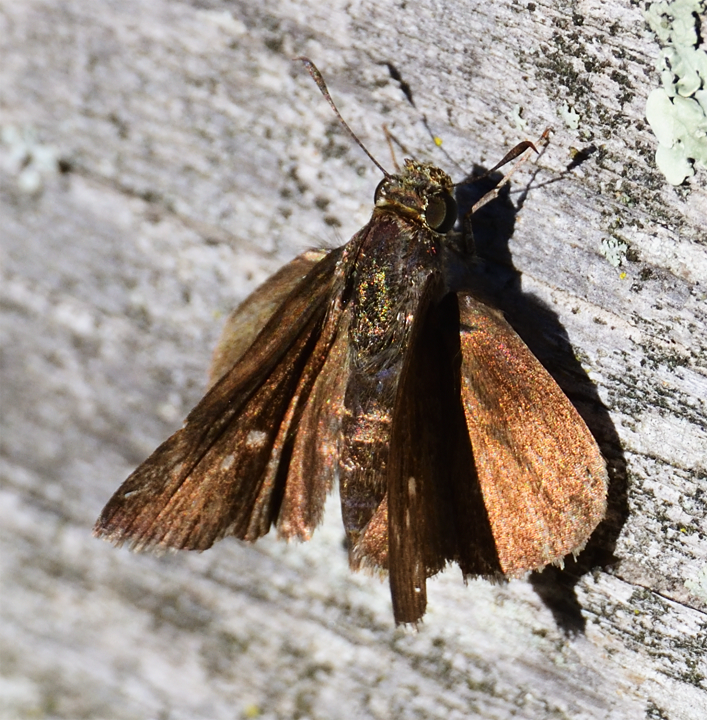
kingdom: Animalia
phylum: Arthropoda
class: Insecta
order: Lepidoptera
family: Hesperiidae
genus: Euphyes
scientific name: Euphyes vestris
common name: Dun skipper
